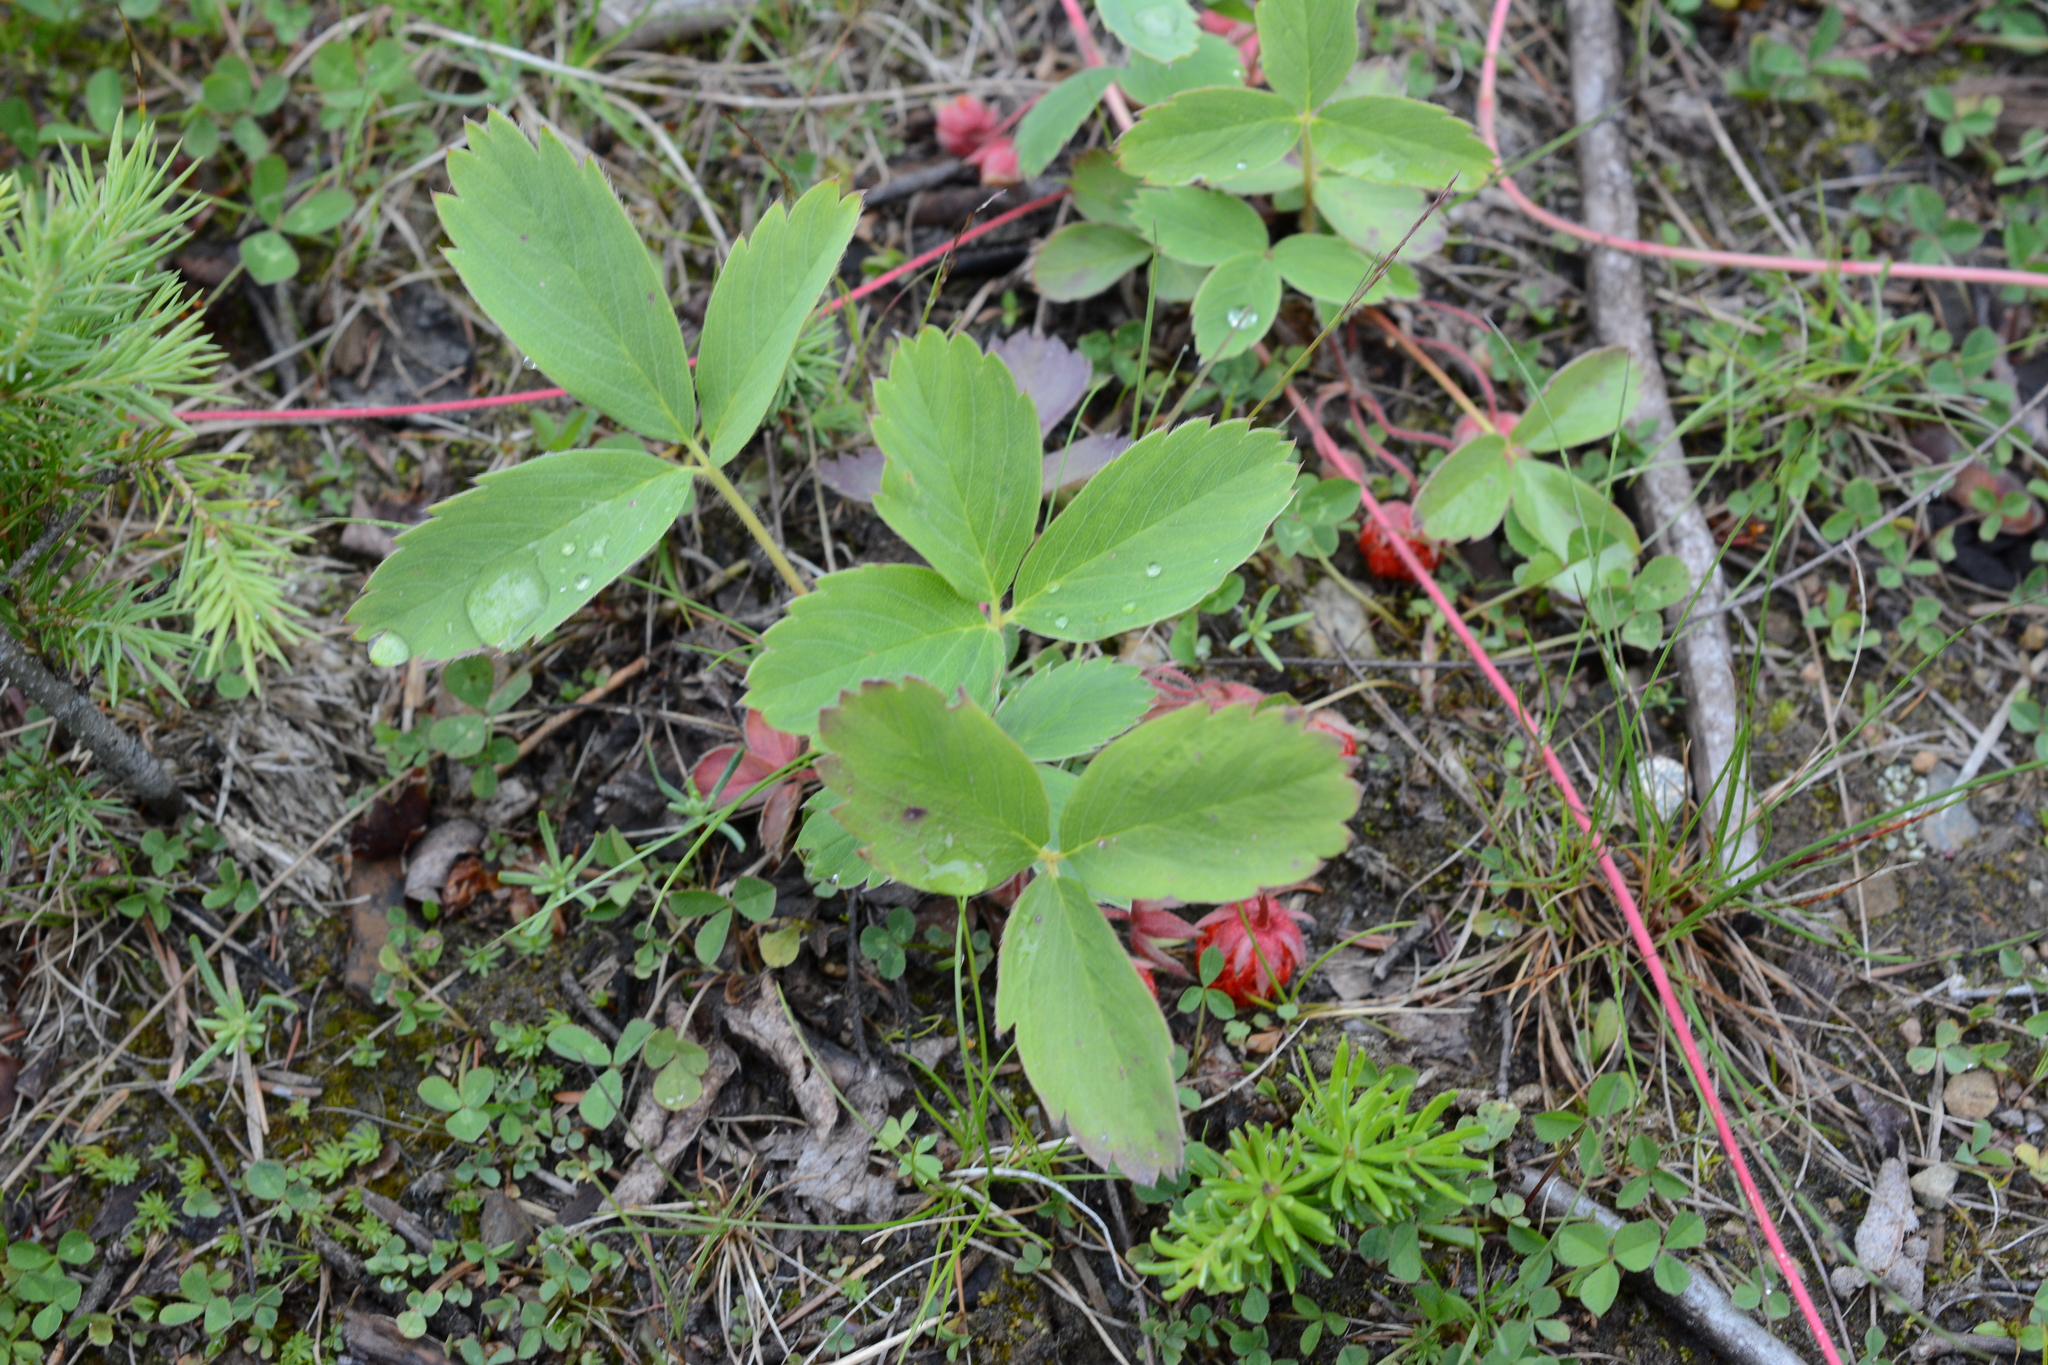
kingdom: Plantae
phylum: Tracheophyta
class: Magnoliopsida
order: Rosales
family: Rosaceae
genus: Fragaria
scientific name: Fragaria virginiana
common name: Thickleaved wild strawberry
